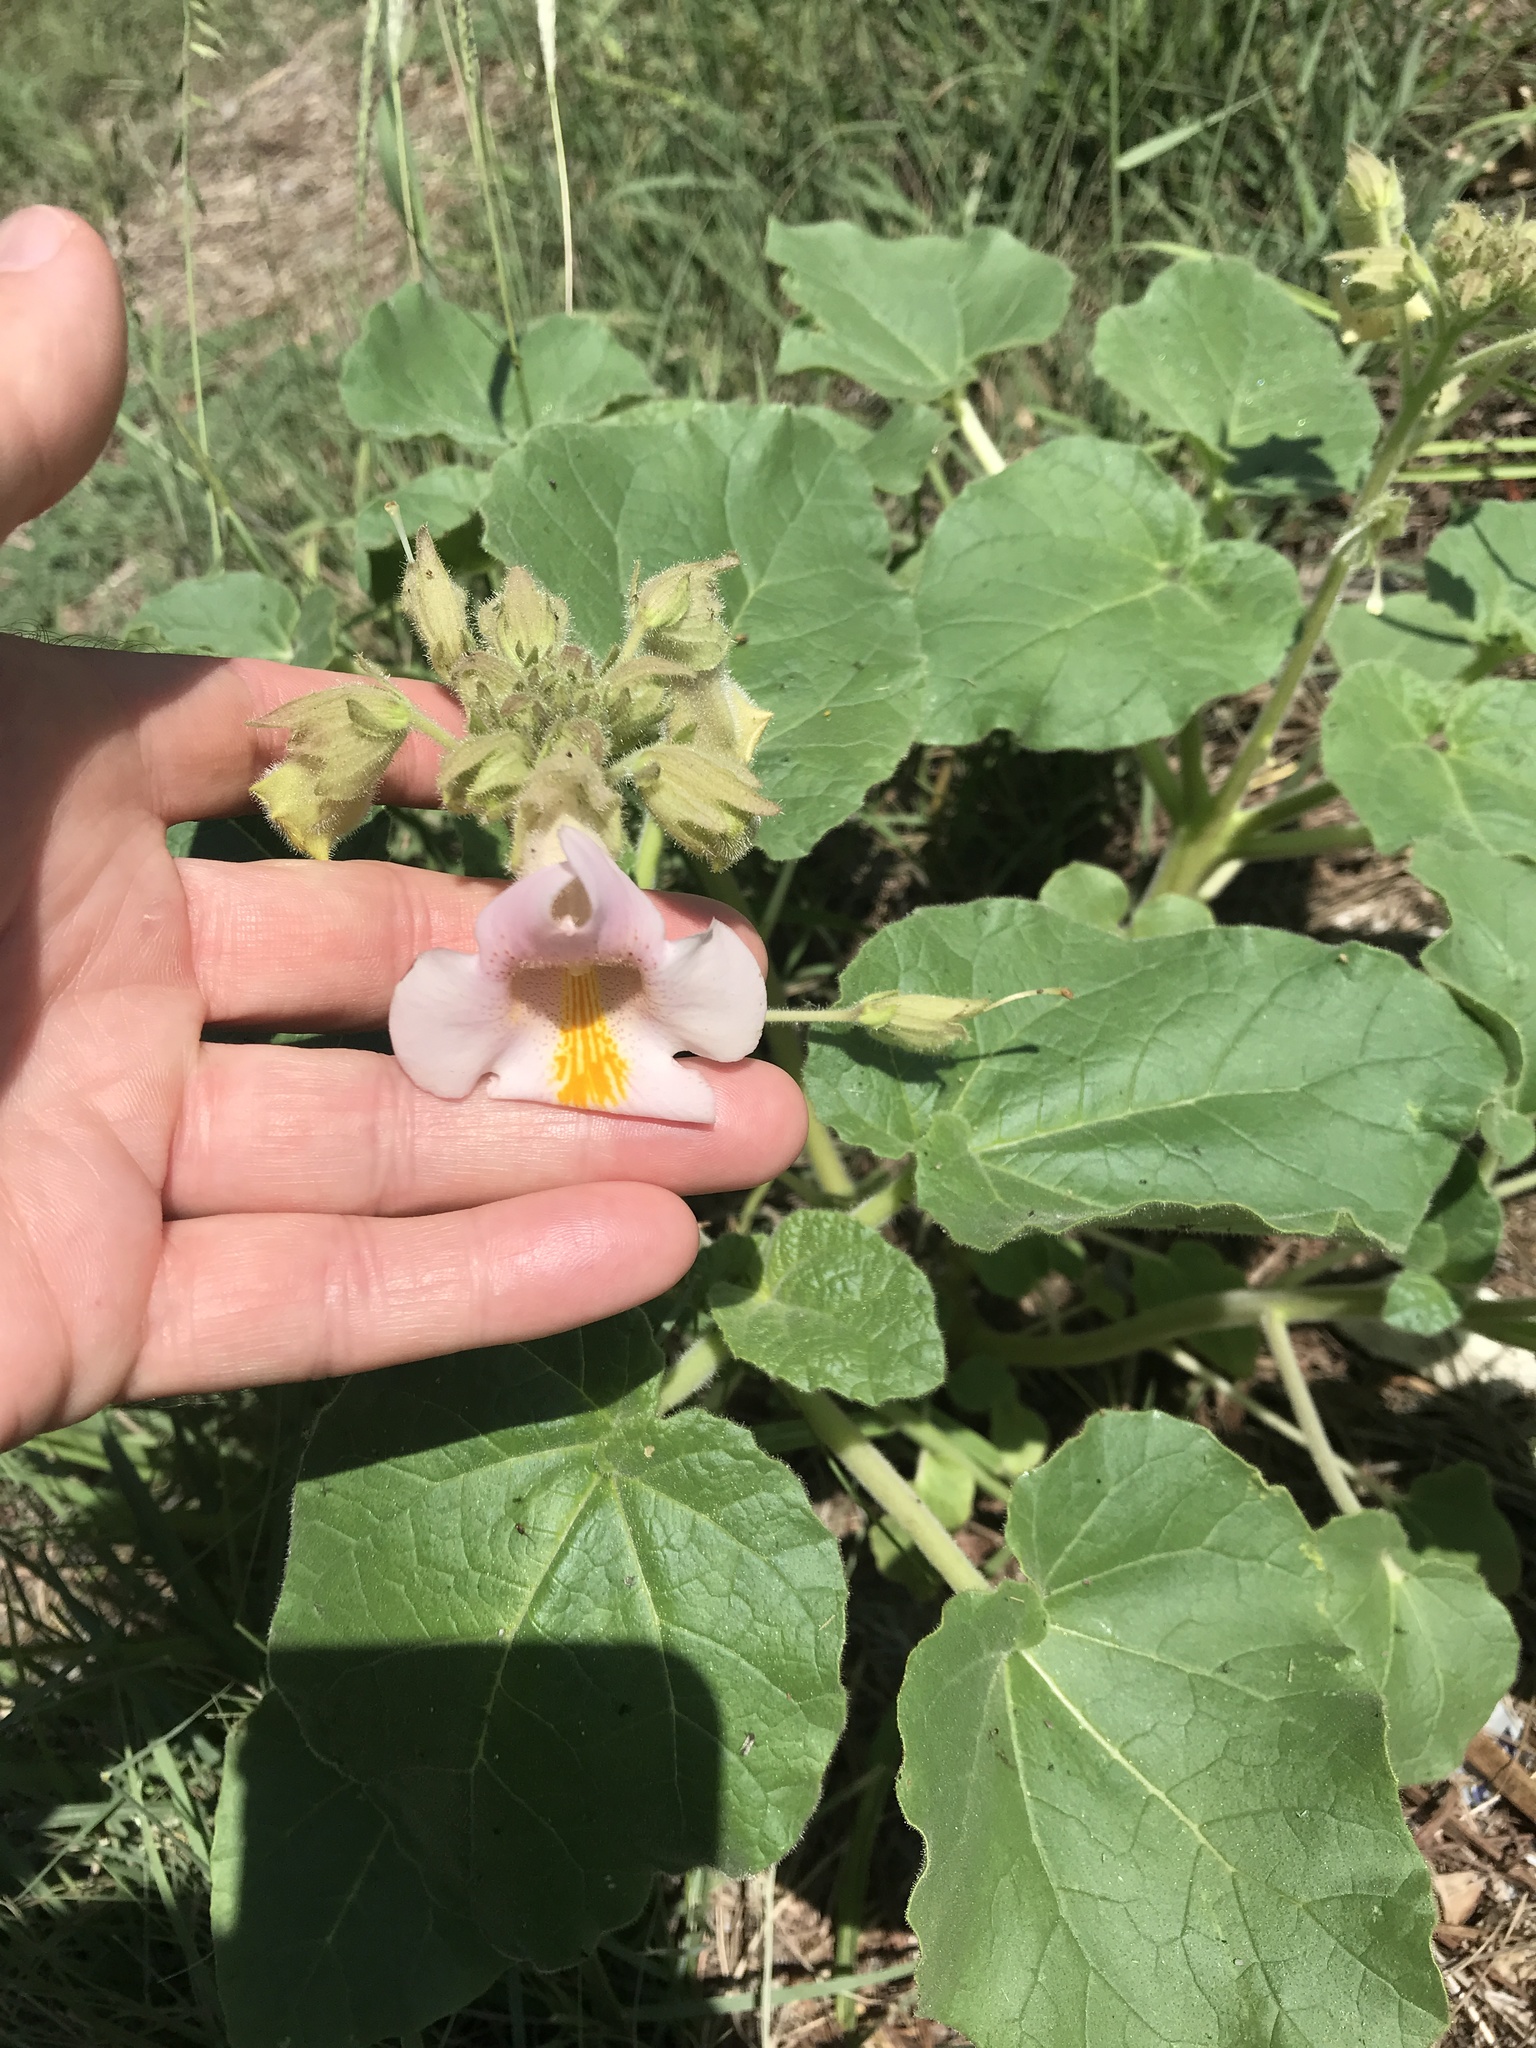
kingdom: Plantae
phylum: Tracheophyta
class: Magnoliopsida
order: Lamiales
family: Martyniaceae
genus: Proboscidea
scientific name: Proboscidea louisianica
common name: Elephant tusks
